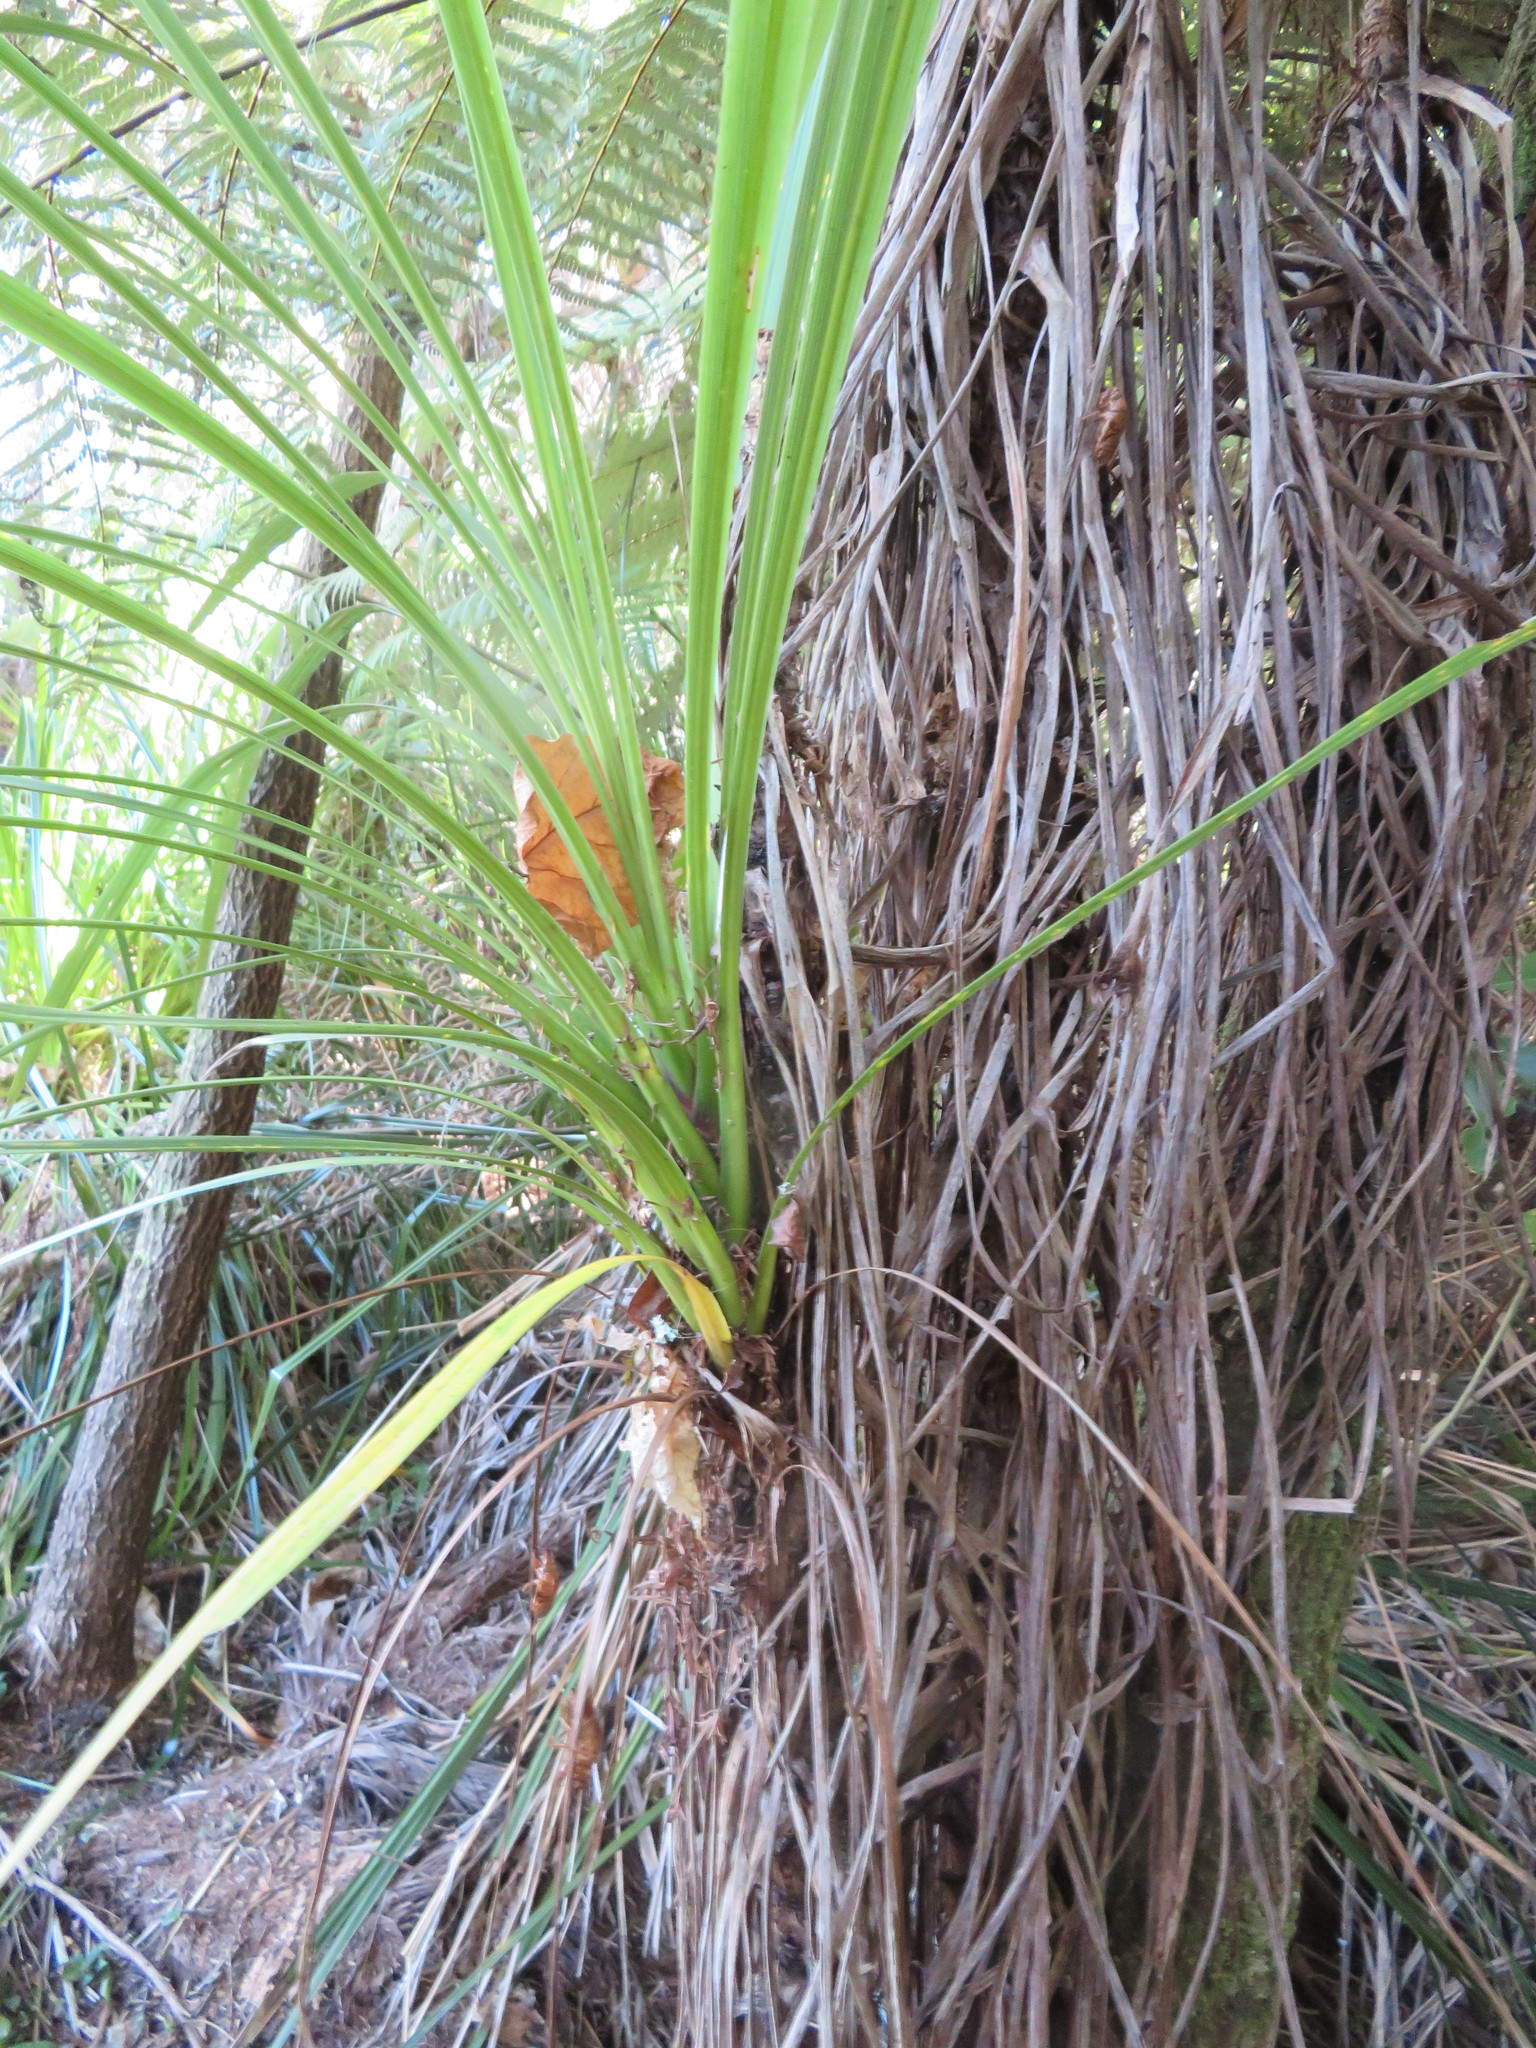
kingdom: Plantae
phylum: Tracheophyta
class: Liliopsida
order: Asparagales
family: Asparagaceae
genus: Cordyline
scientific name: Cordyline australis
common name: Cabbage-palm
